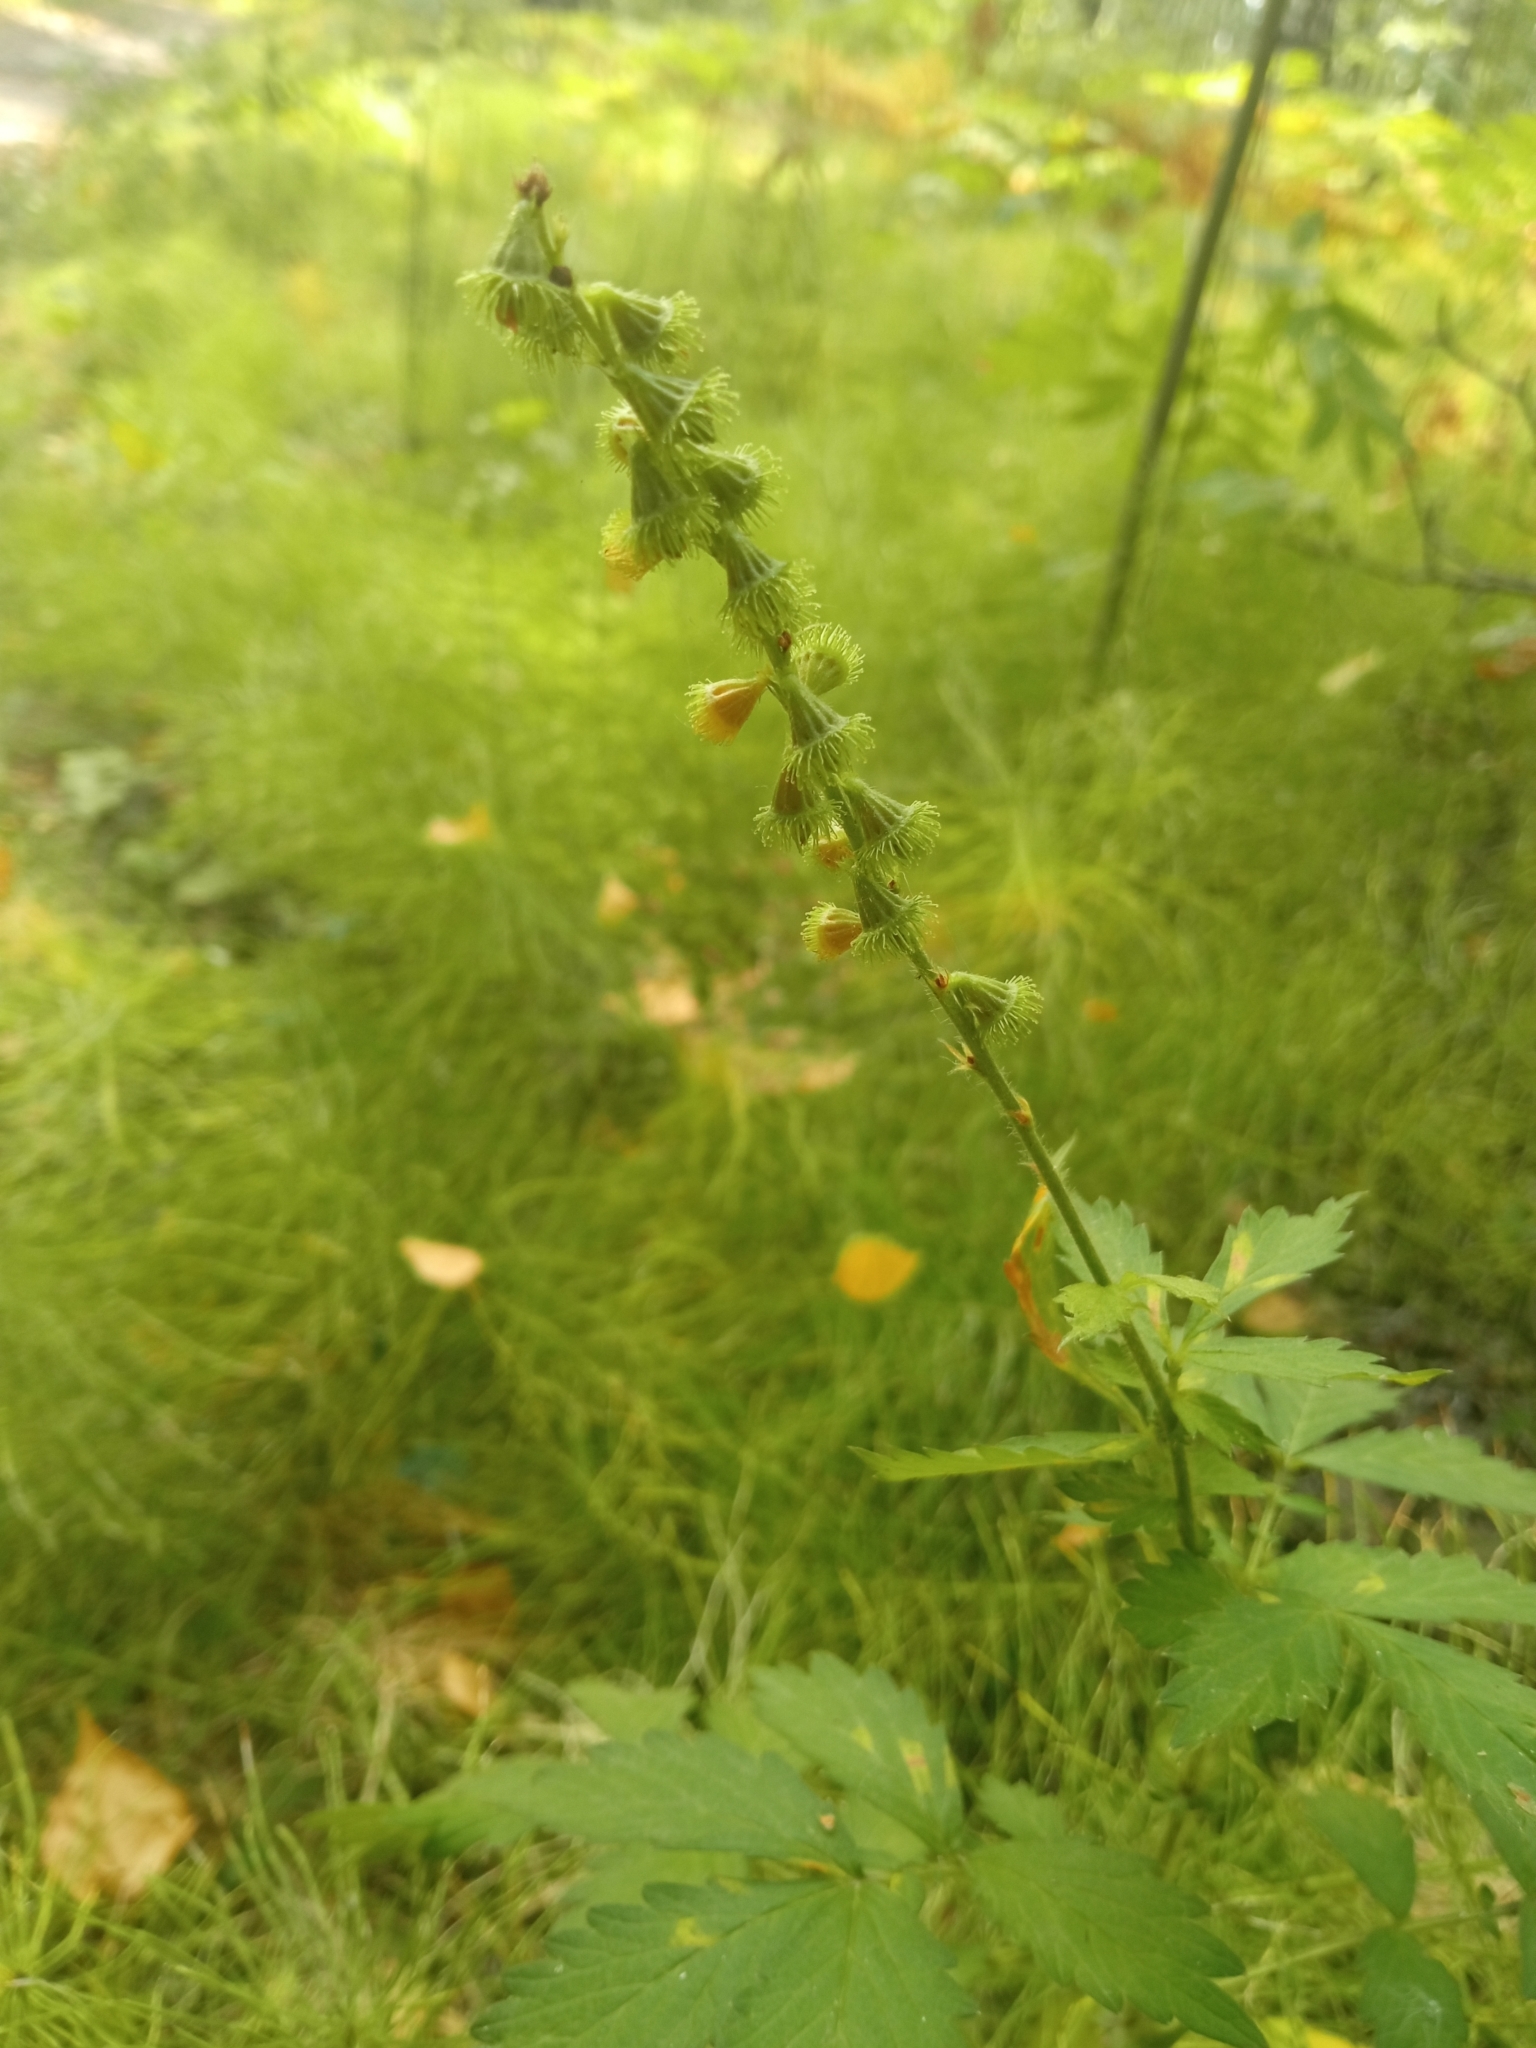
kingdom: Plantae
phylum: Tracheophyta
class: Magnoliopsida
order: Rosales
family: Rosaceae
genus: Agrimonia
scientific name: Agrimonia pilosa
